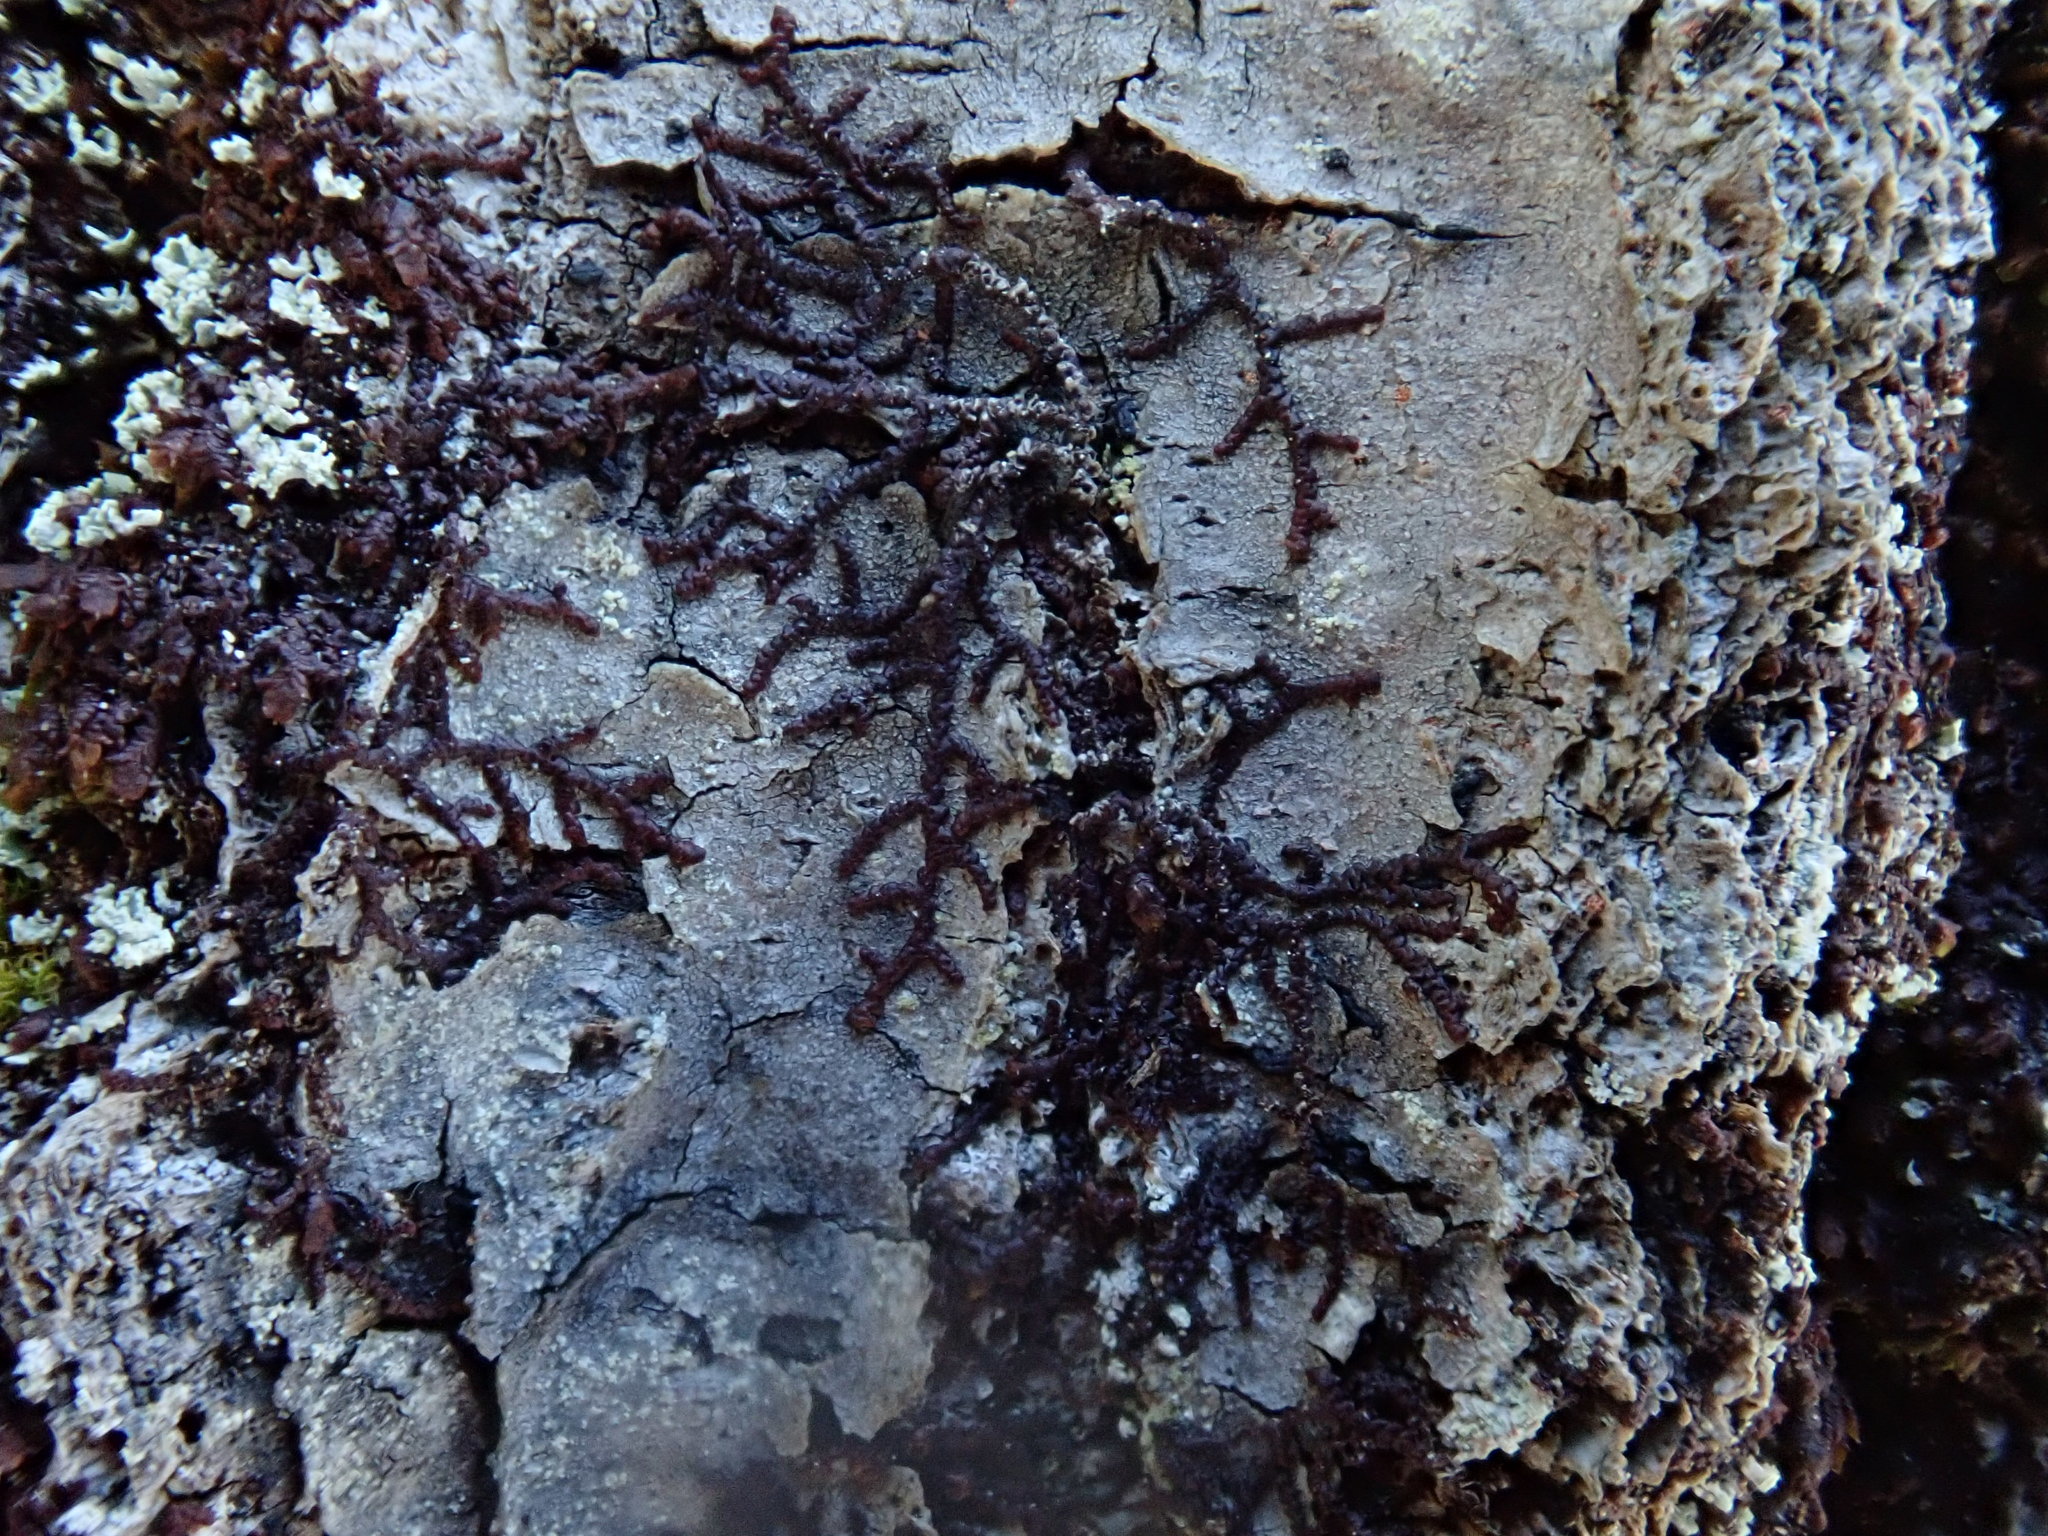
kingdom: Plantae
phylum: Marchantiophyta
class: Jungermanniopsida
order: Porellales
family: Frullaniaceae
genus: Frullania
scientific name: Frullania
